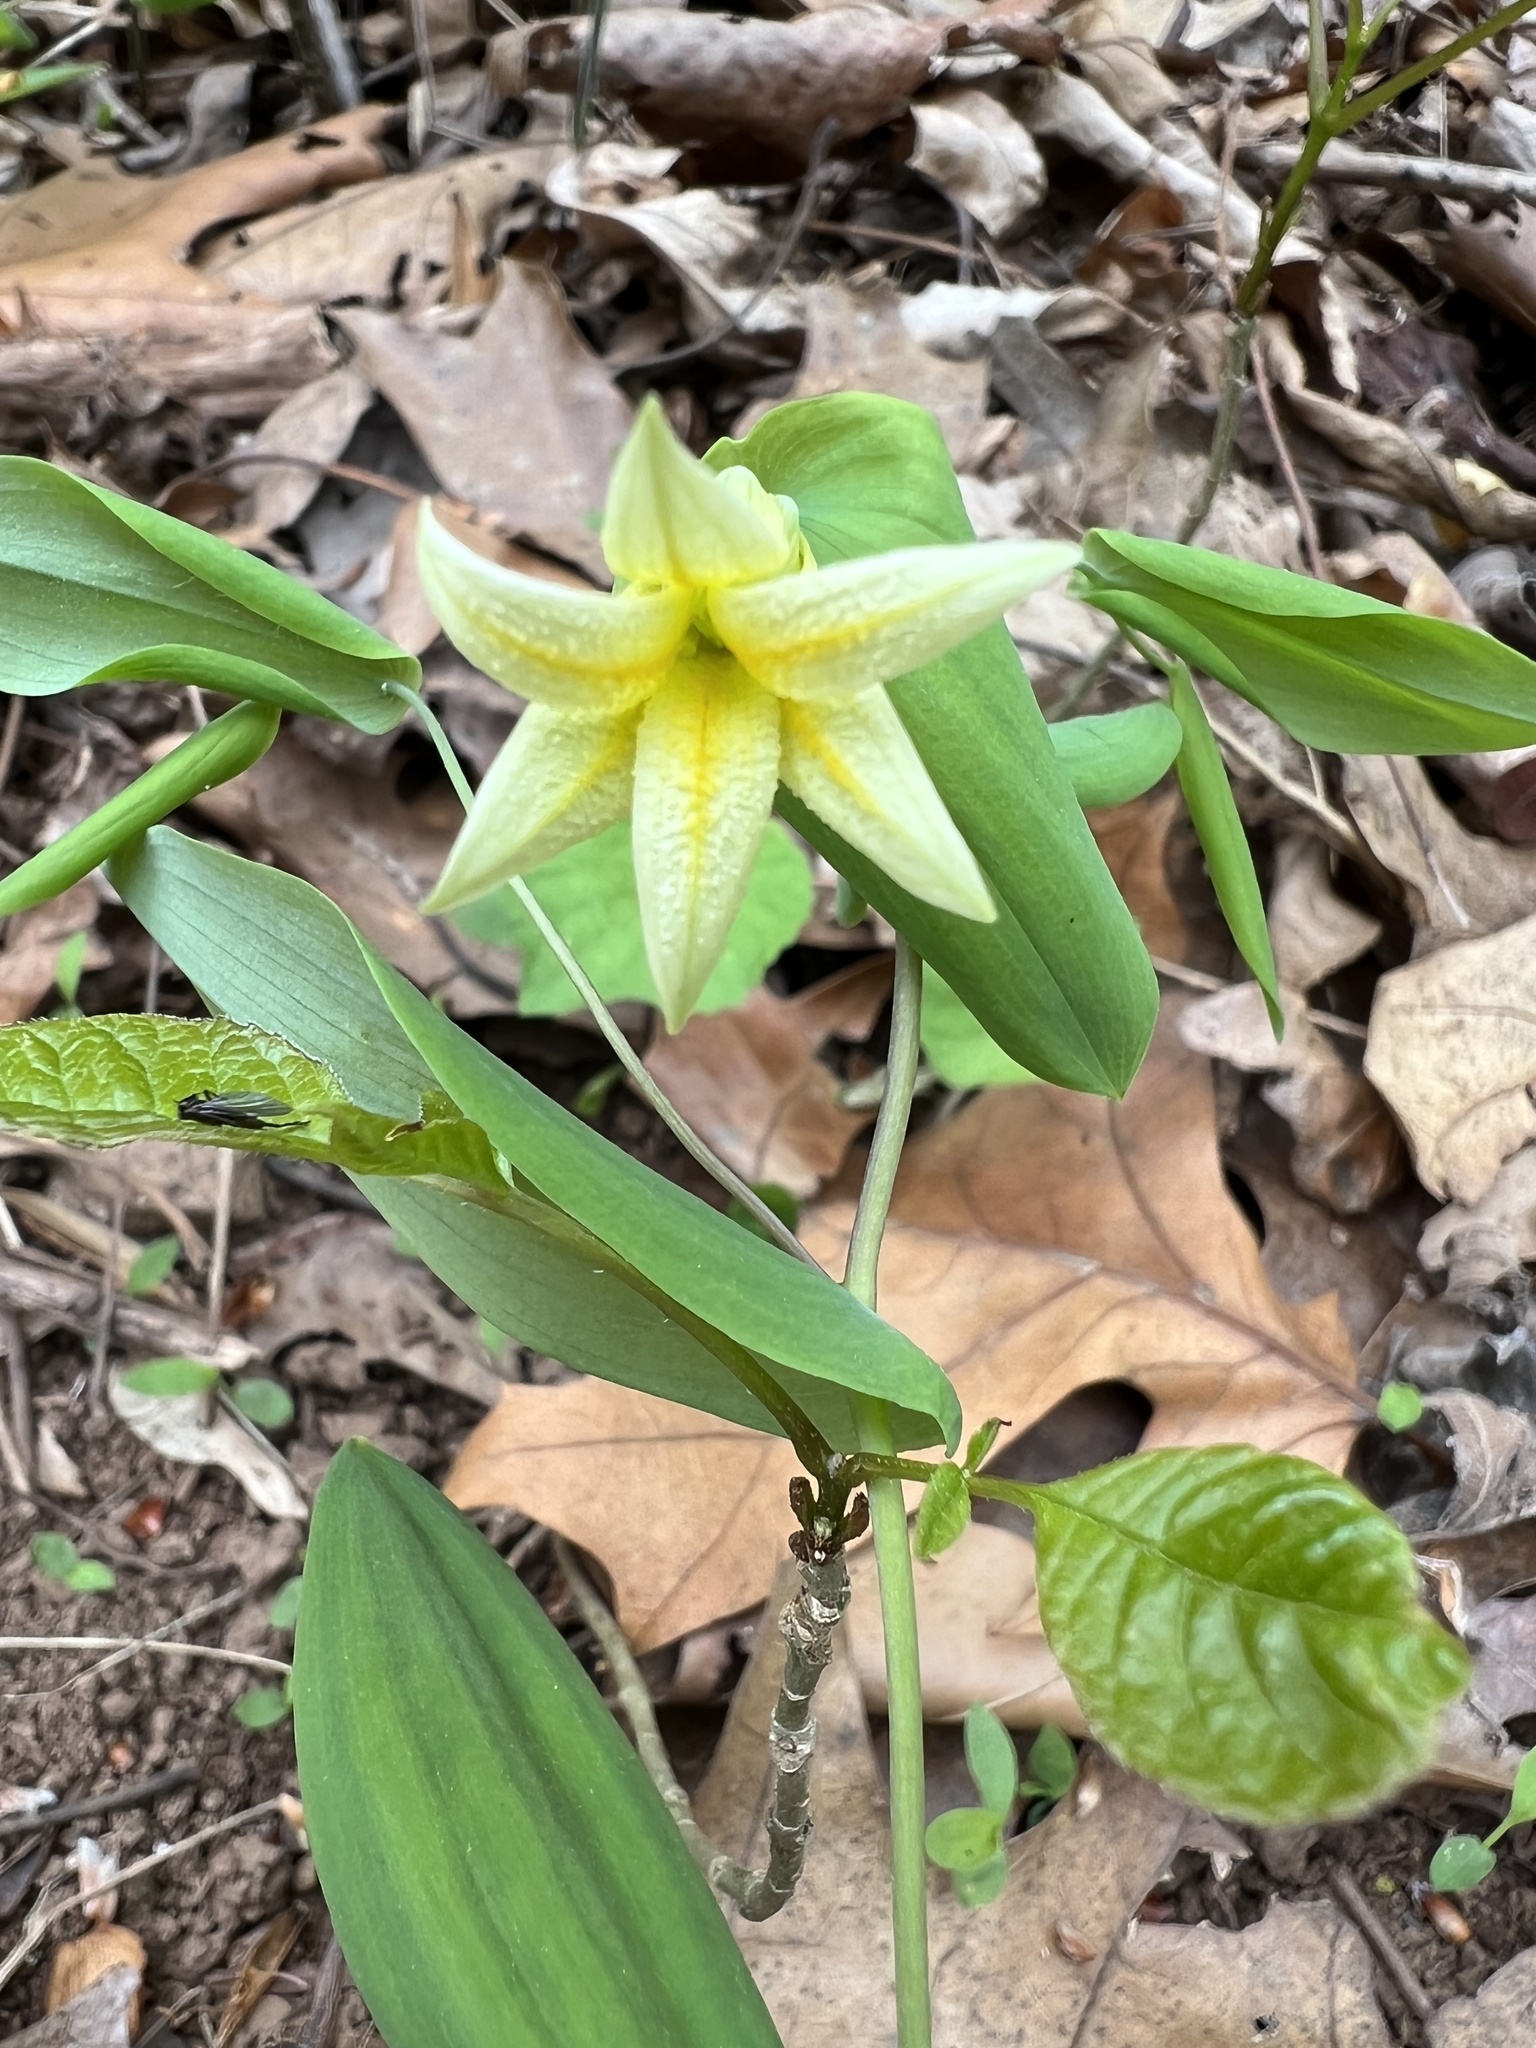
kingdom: Plantae
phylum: Tracheophyta
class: Liliopsida
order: Liliales
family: Colchicaceae
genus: Uvularia
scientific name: Uvularia perfoliata
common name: Perfoliate bellwort
